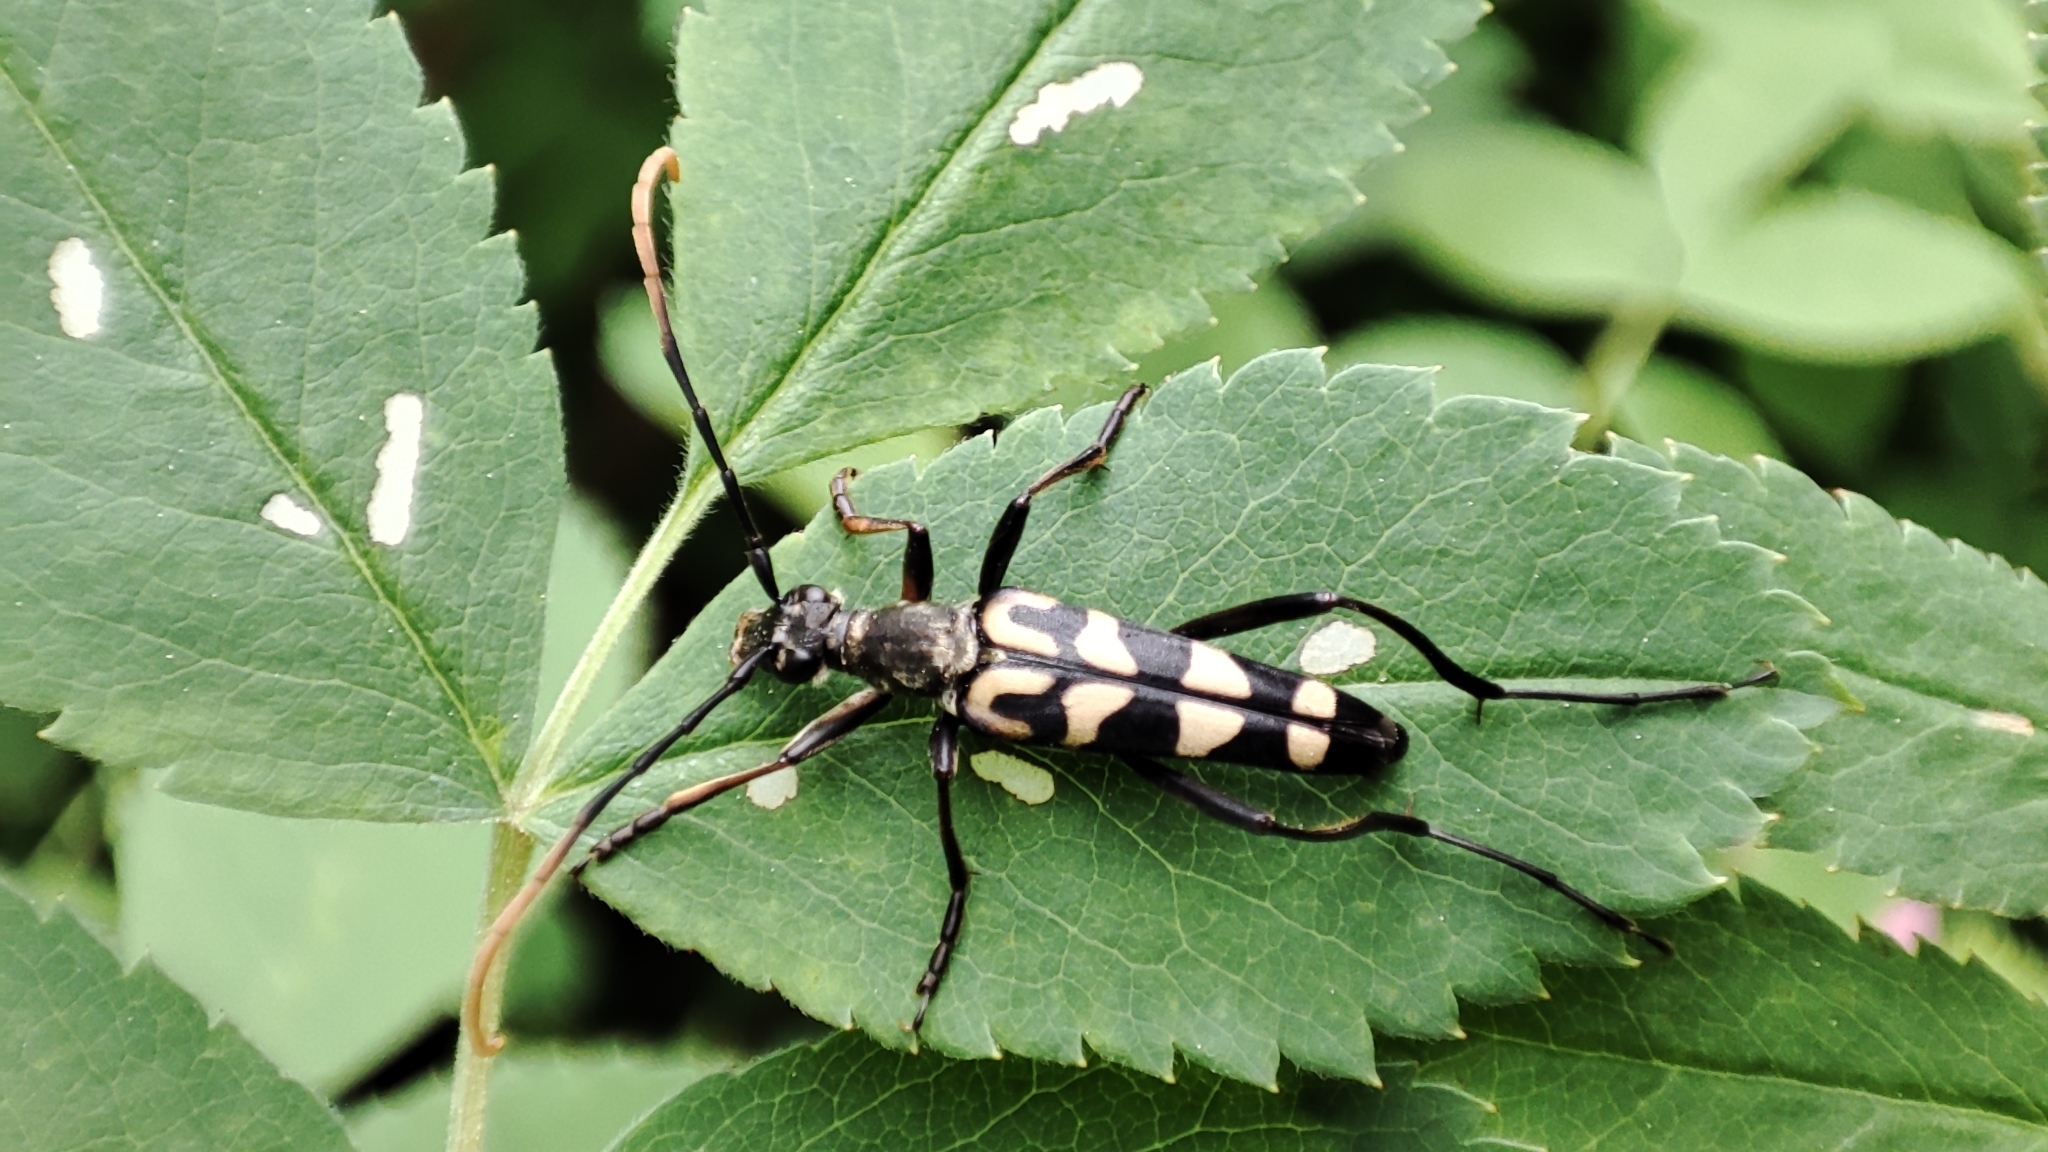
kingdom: Animalia
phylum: Arthropoda
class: Insecta
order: Coleoptera
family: Cerambycidae
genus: Leptura
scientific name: Leptura annularis
